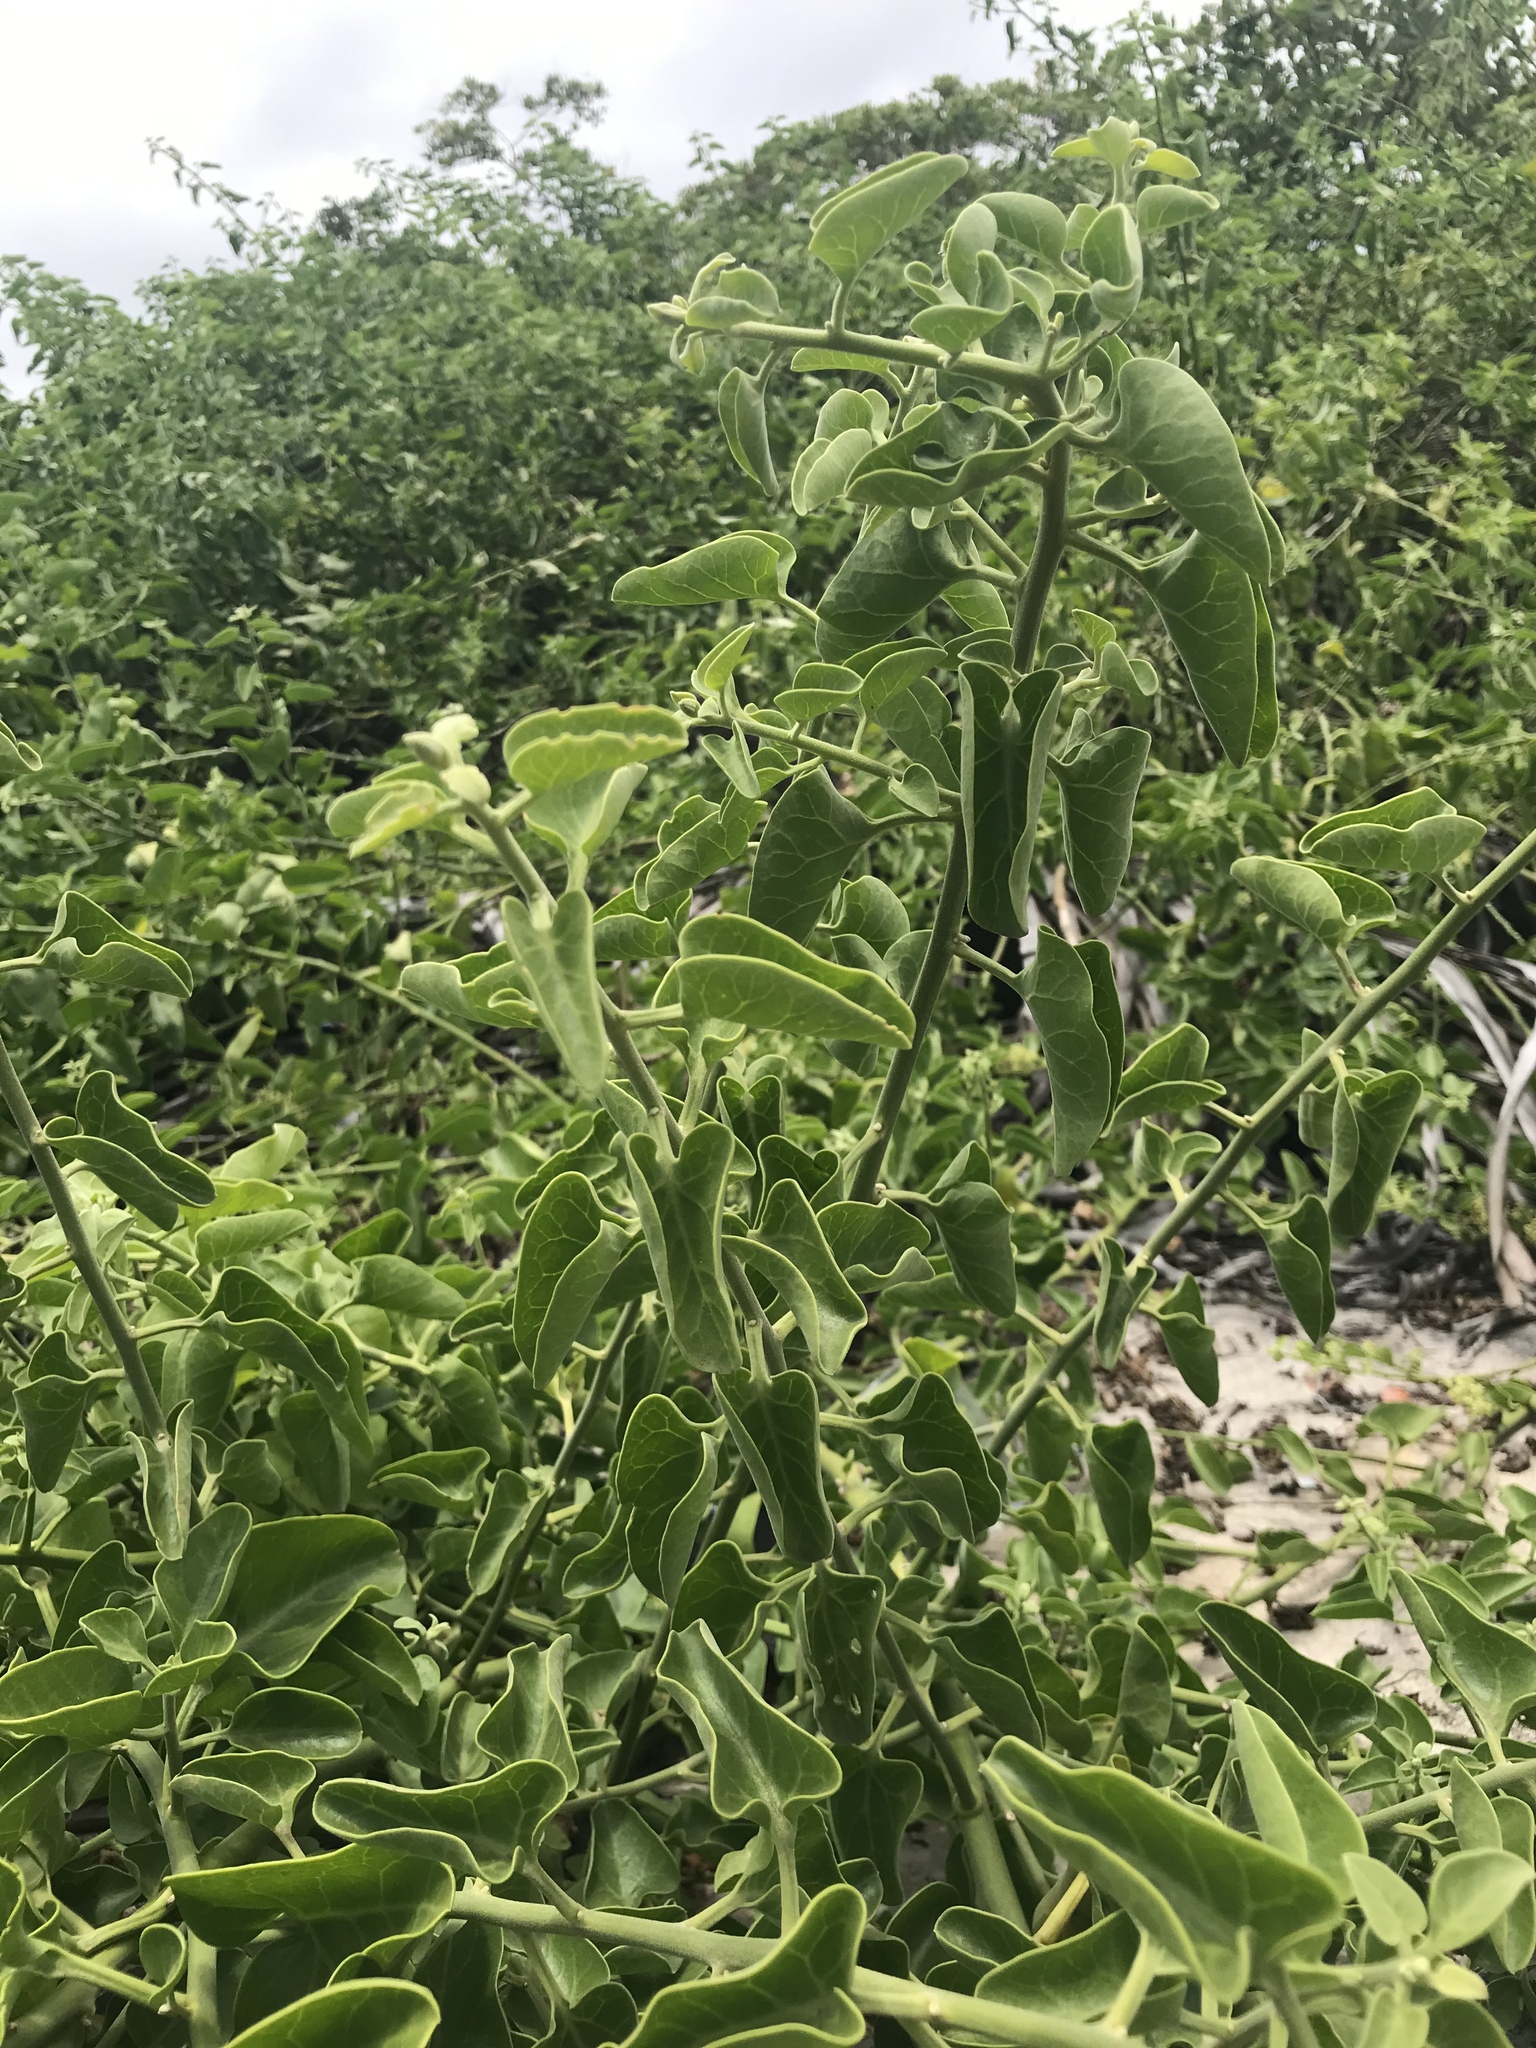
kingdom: Plantae
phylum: Tracheophyta
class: Magnoliopsida
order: Caryophyllales
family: Nyctaginaceae
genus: Cryptocarpus
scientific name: Cryptocarpus pyriformis
